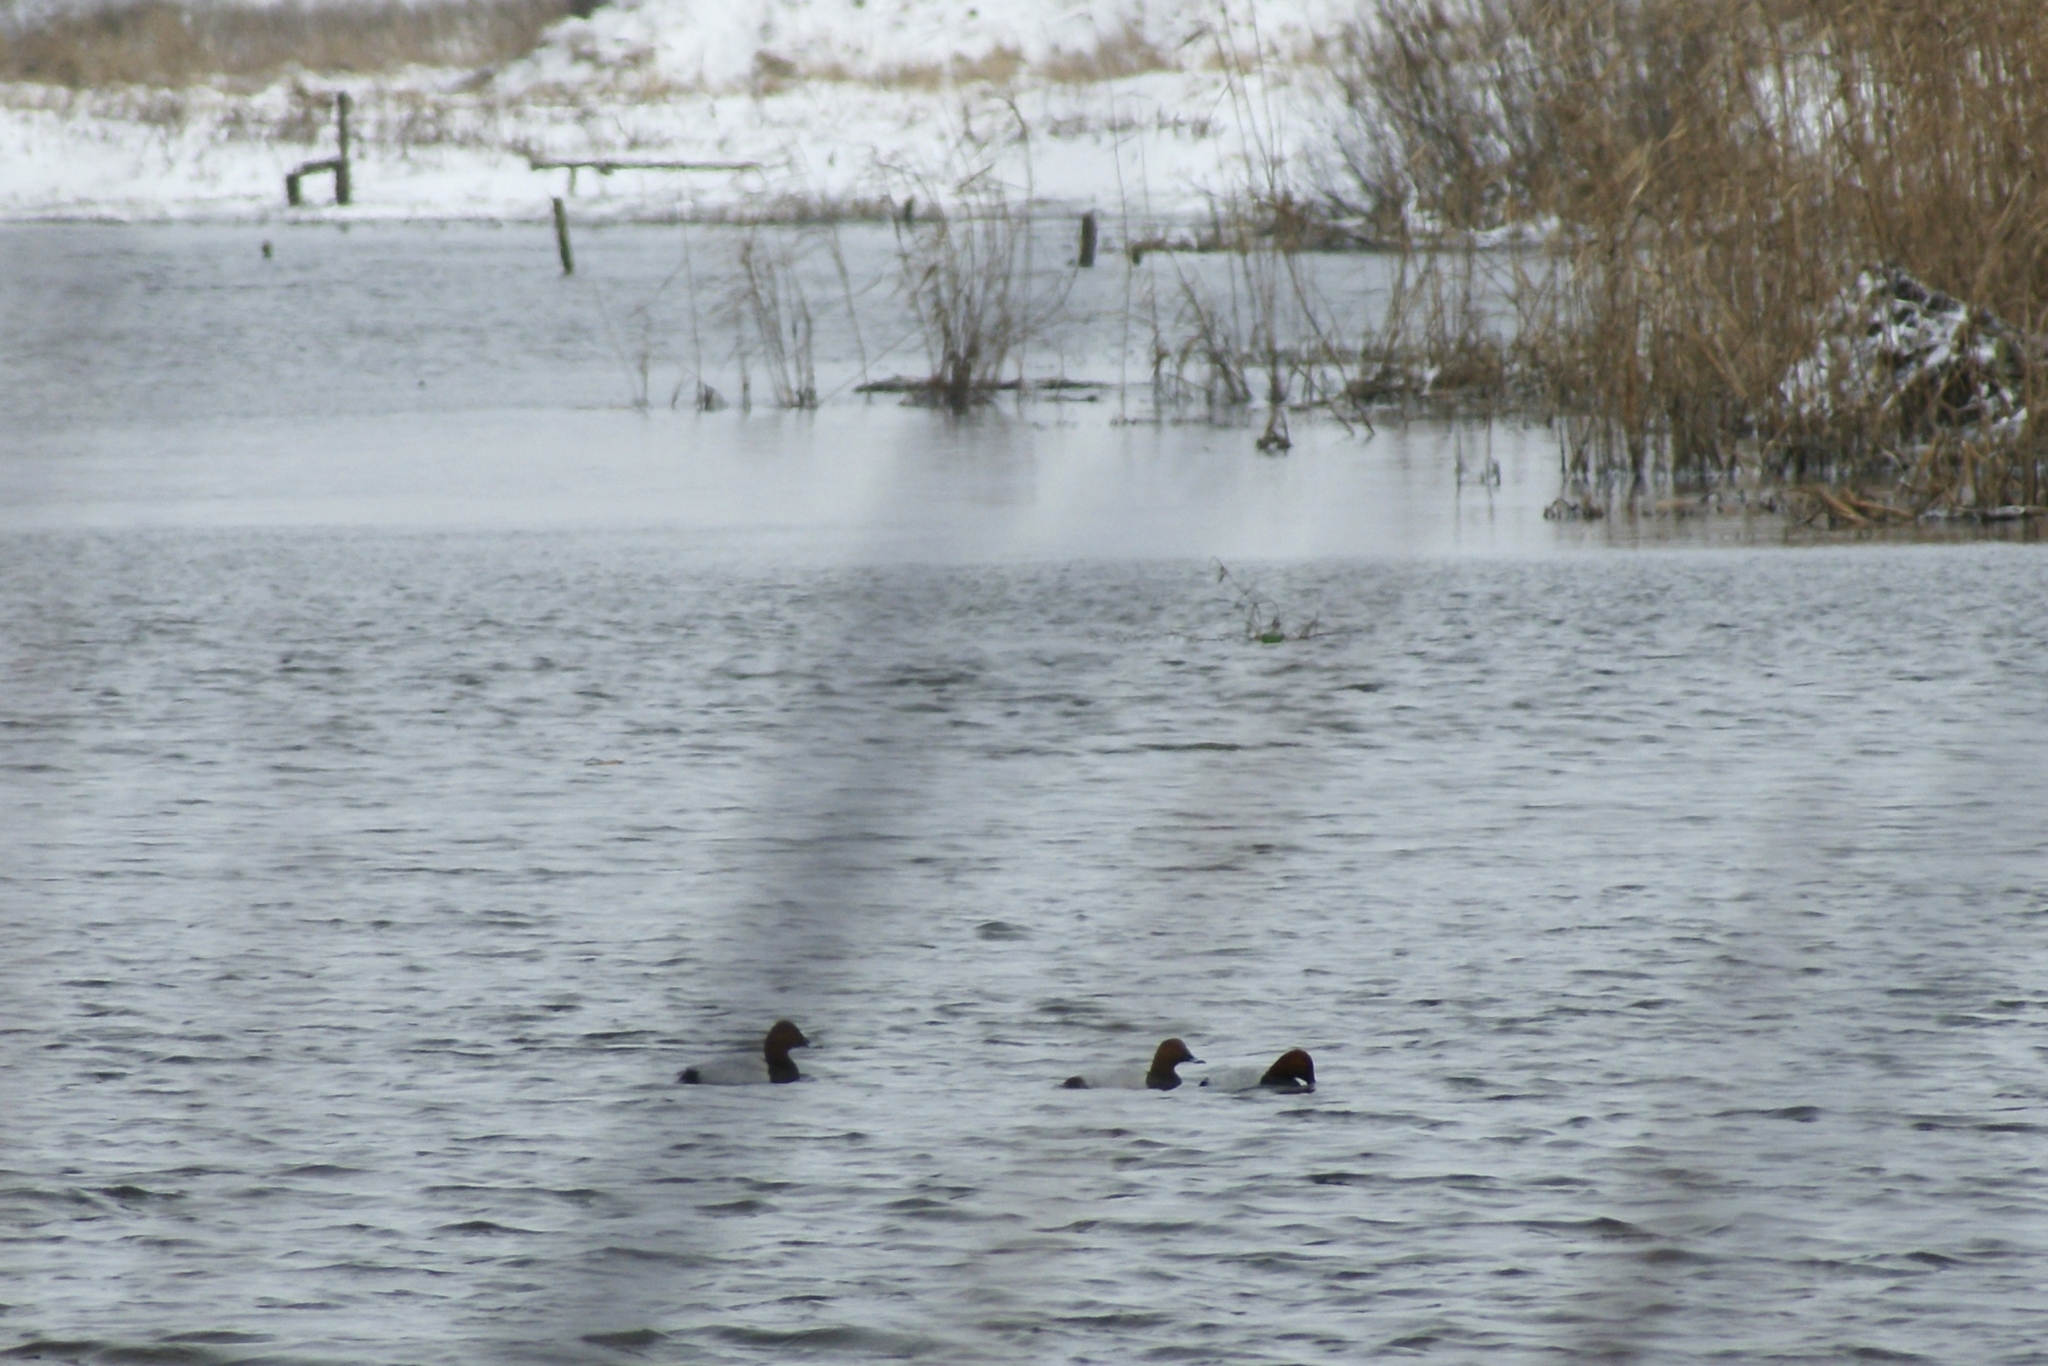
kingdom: Animalia
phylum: Chordata
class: Aves
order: Anseriformes
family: Anatidae
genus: Aythya
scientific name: Aythya ferina
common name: Common pochard
